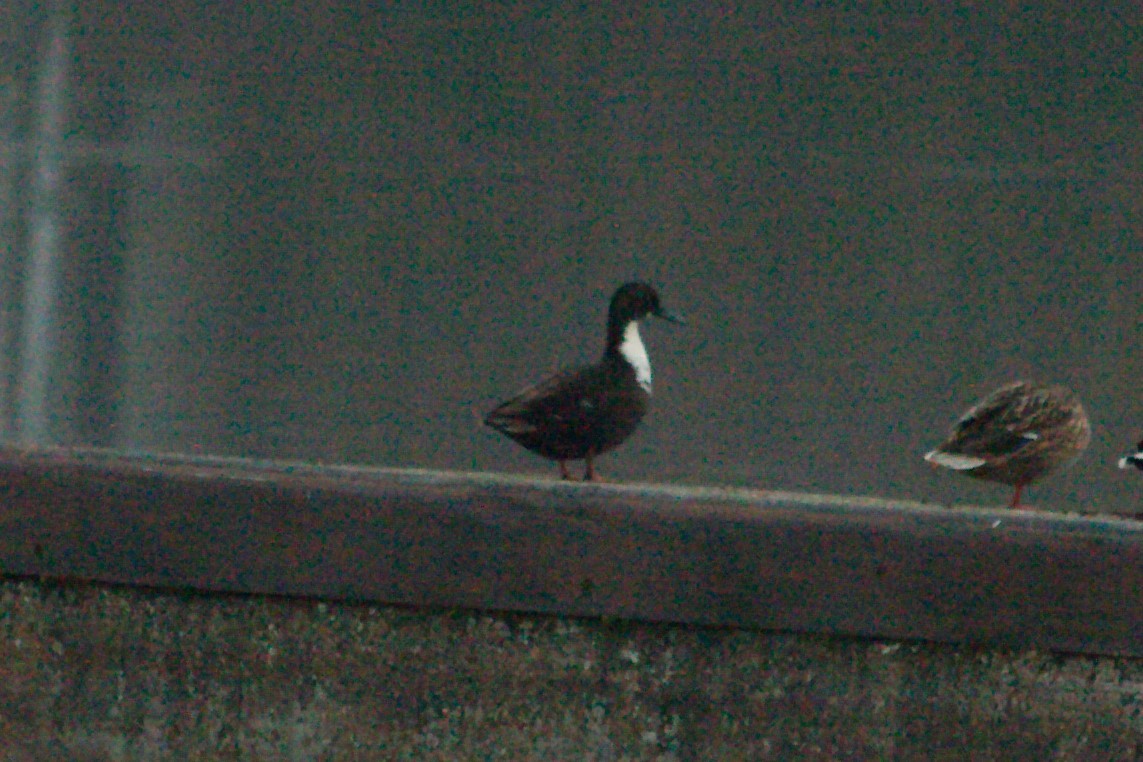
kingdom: Animalia
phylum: Chordata
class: Aves
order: Anseriformes
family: Anatidae
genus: Anas
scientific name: Anas platyrhynchos
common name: Mallard
